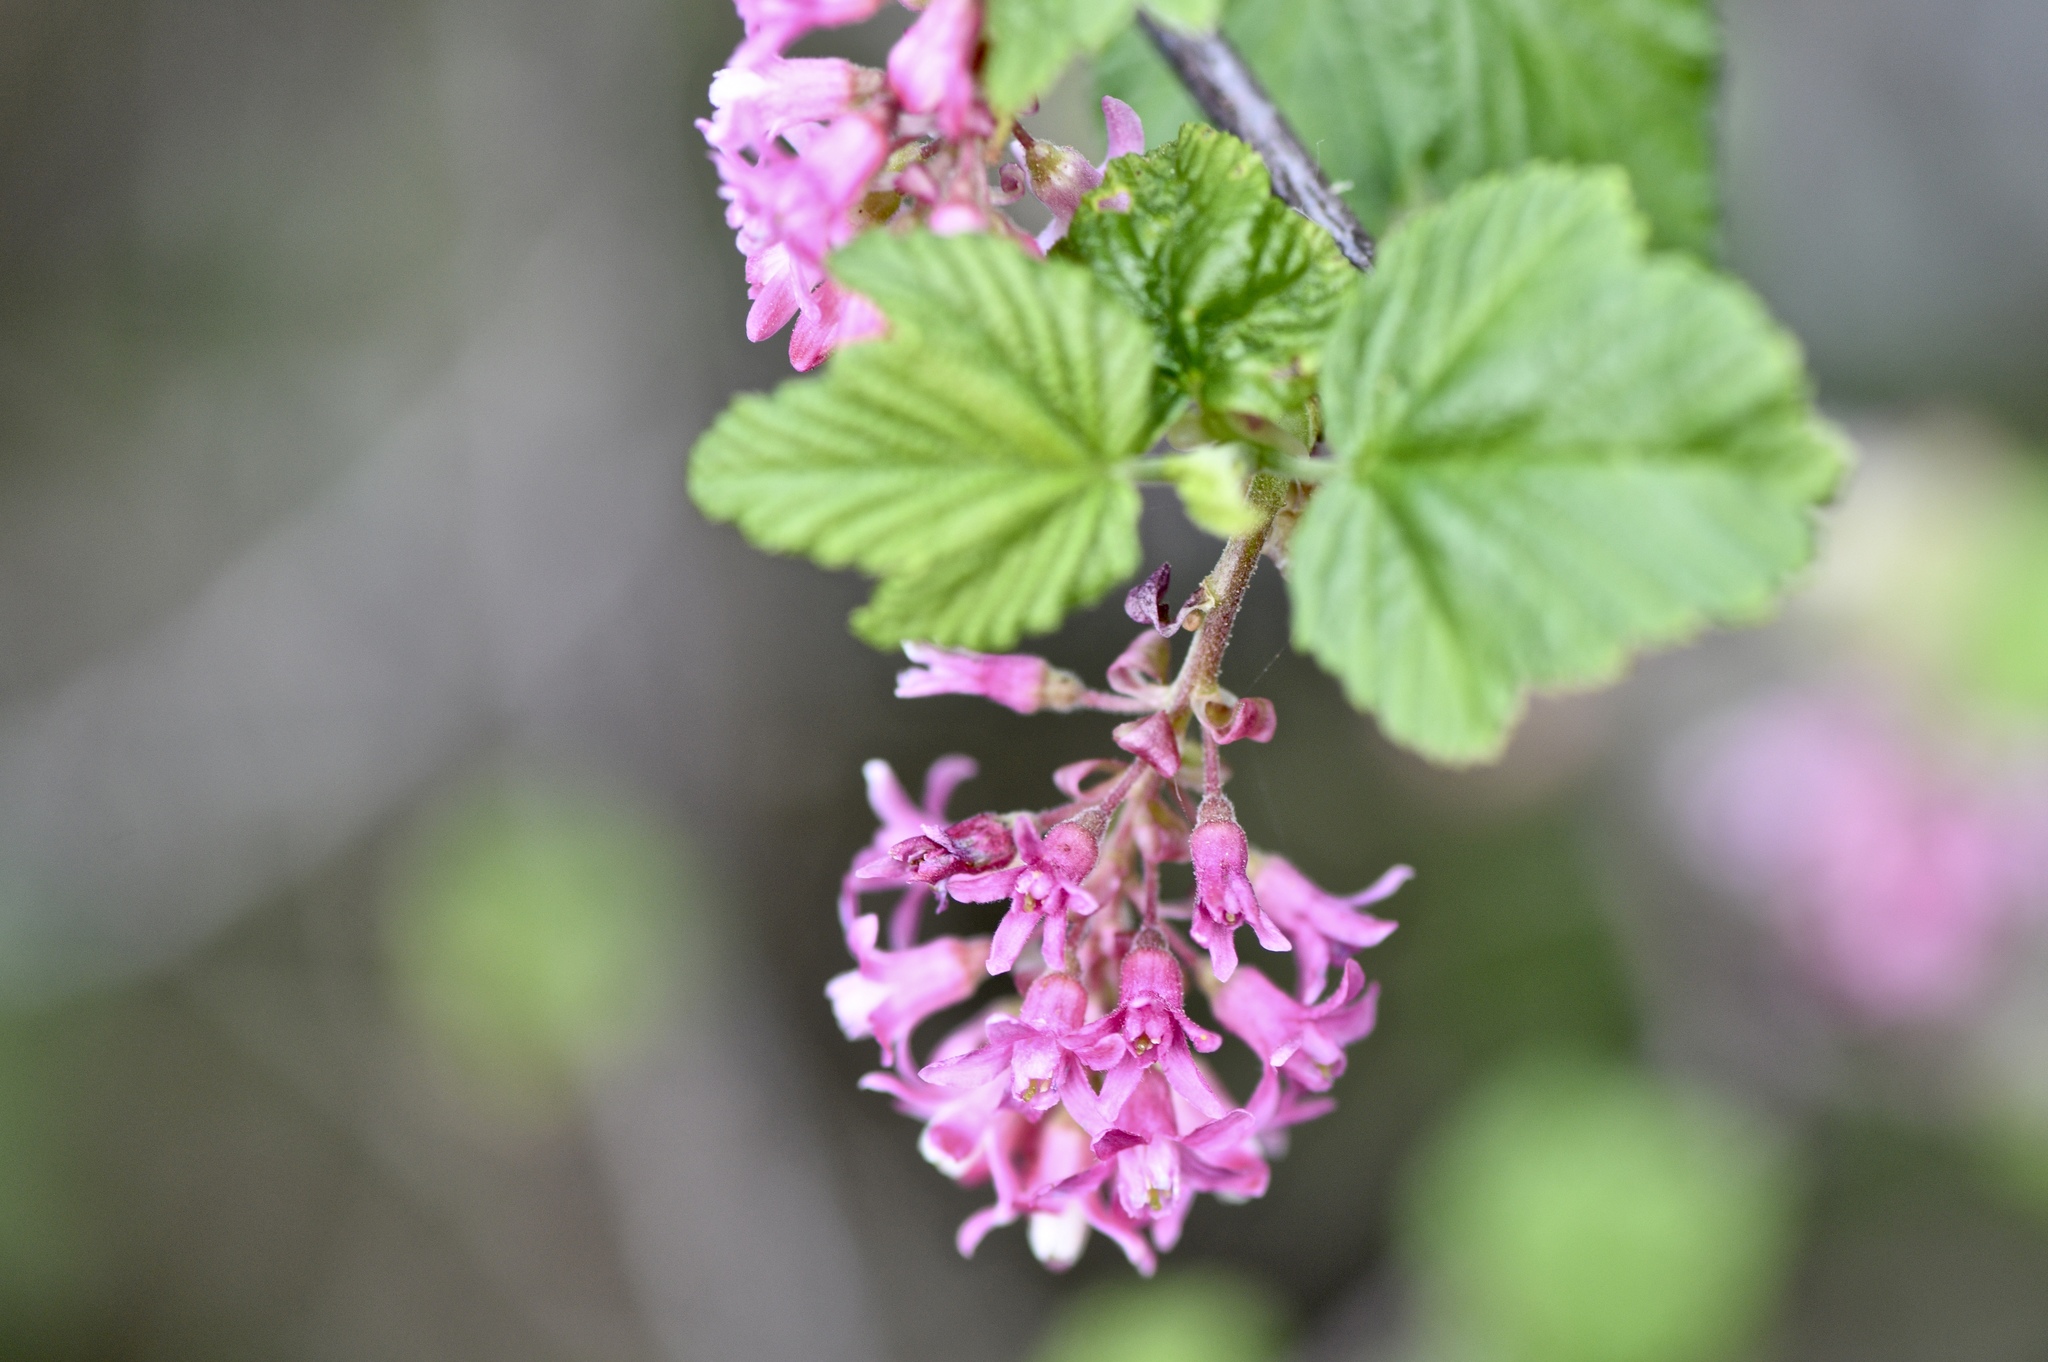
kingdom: Plantae
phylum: Tracheophyta
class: Magnoliopsida
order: Saxifragales
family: Grossulariaceae
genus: Ribes
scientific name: Ribes sanguineum
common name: Flowering currant
